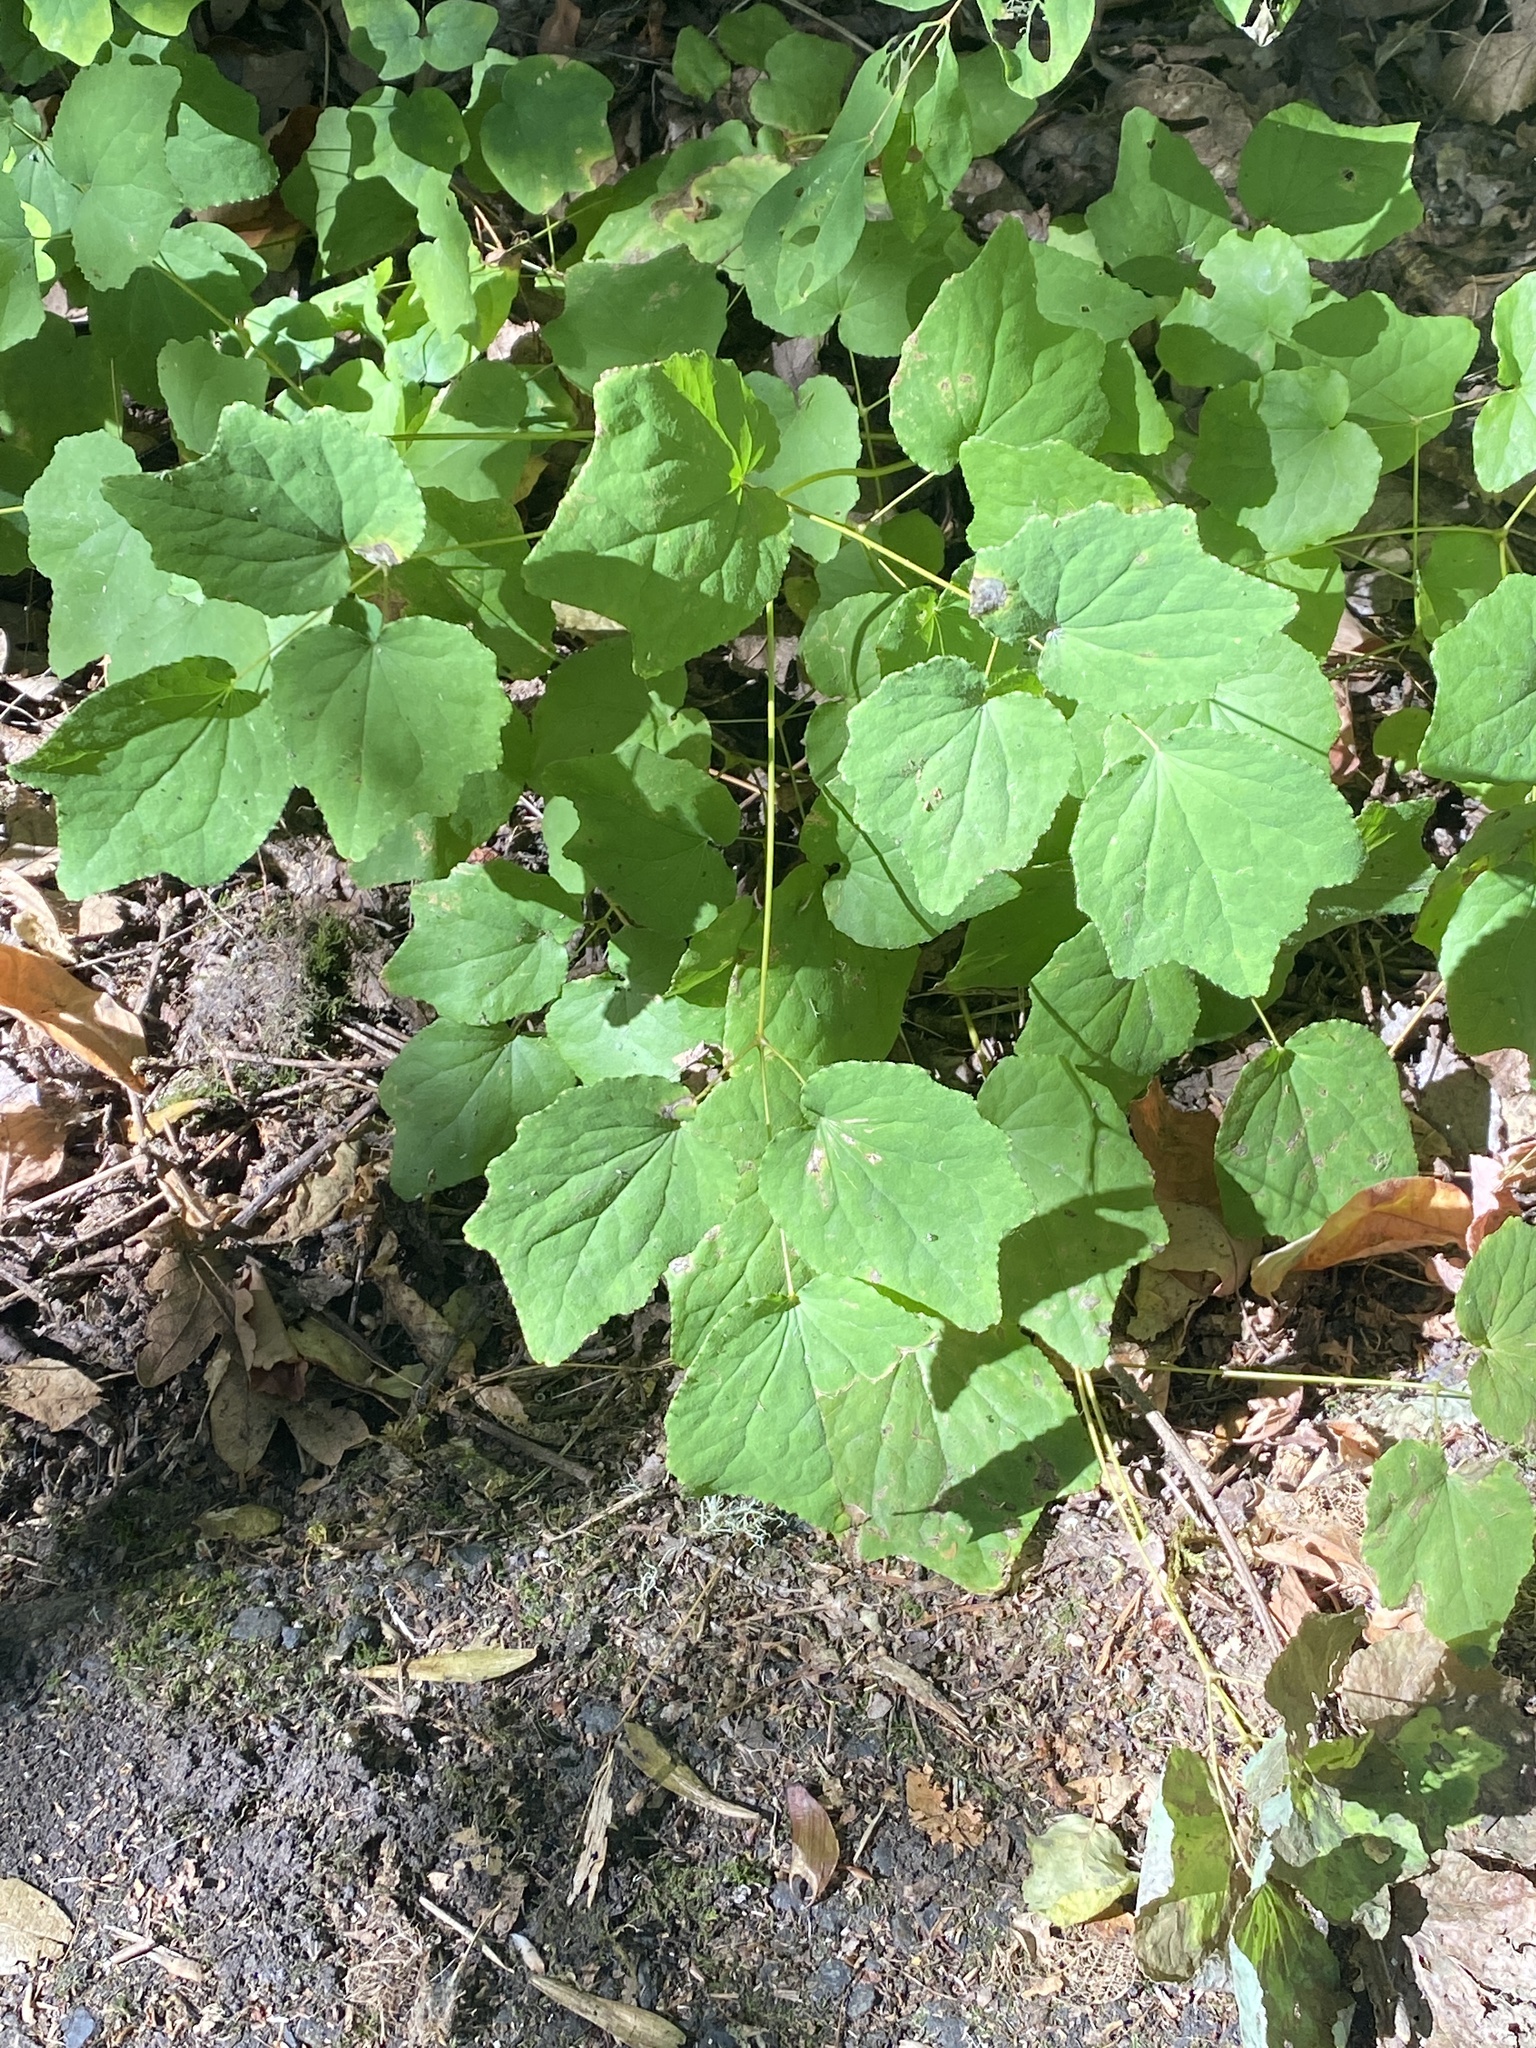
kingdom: Plantae
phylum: Tracheophyta
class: Magnoliopsida
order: Ranunculales
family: Berberidaceae
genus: Vancouveria
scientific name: Vancouveria hexandra
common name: Northern inside-out-flower
